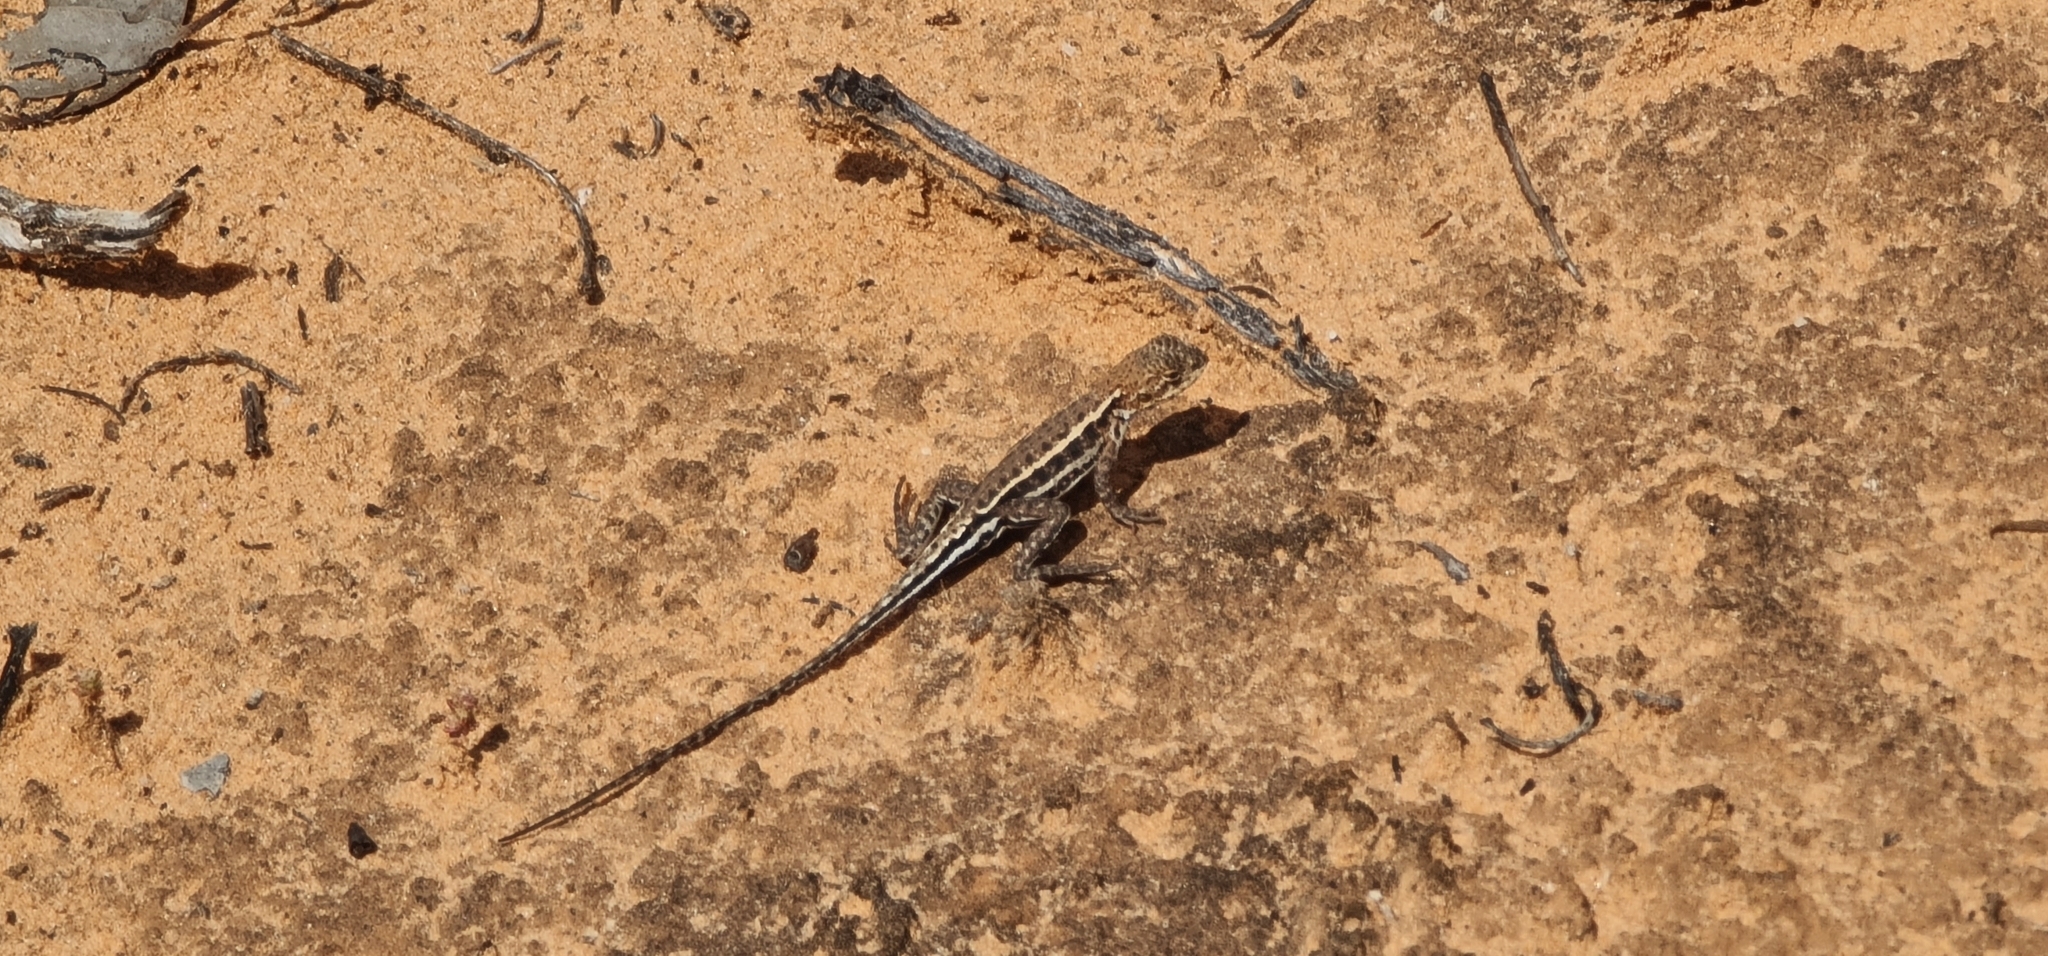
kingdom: Animalia
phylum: Chordata
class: Squamata
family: Agamidae
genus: Ctenophorus
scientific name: Ctenophorus spinodomus
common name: Eastern mallee dragon
